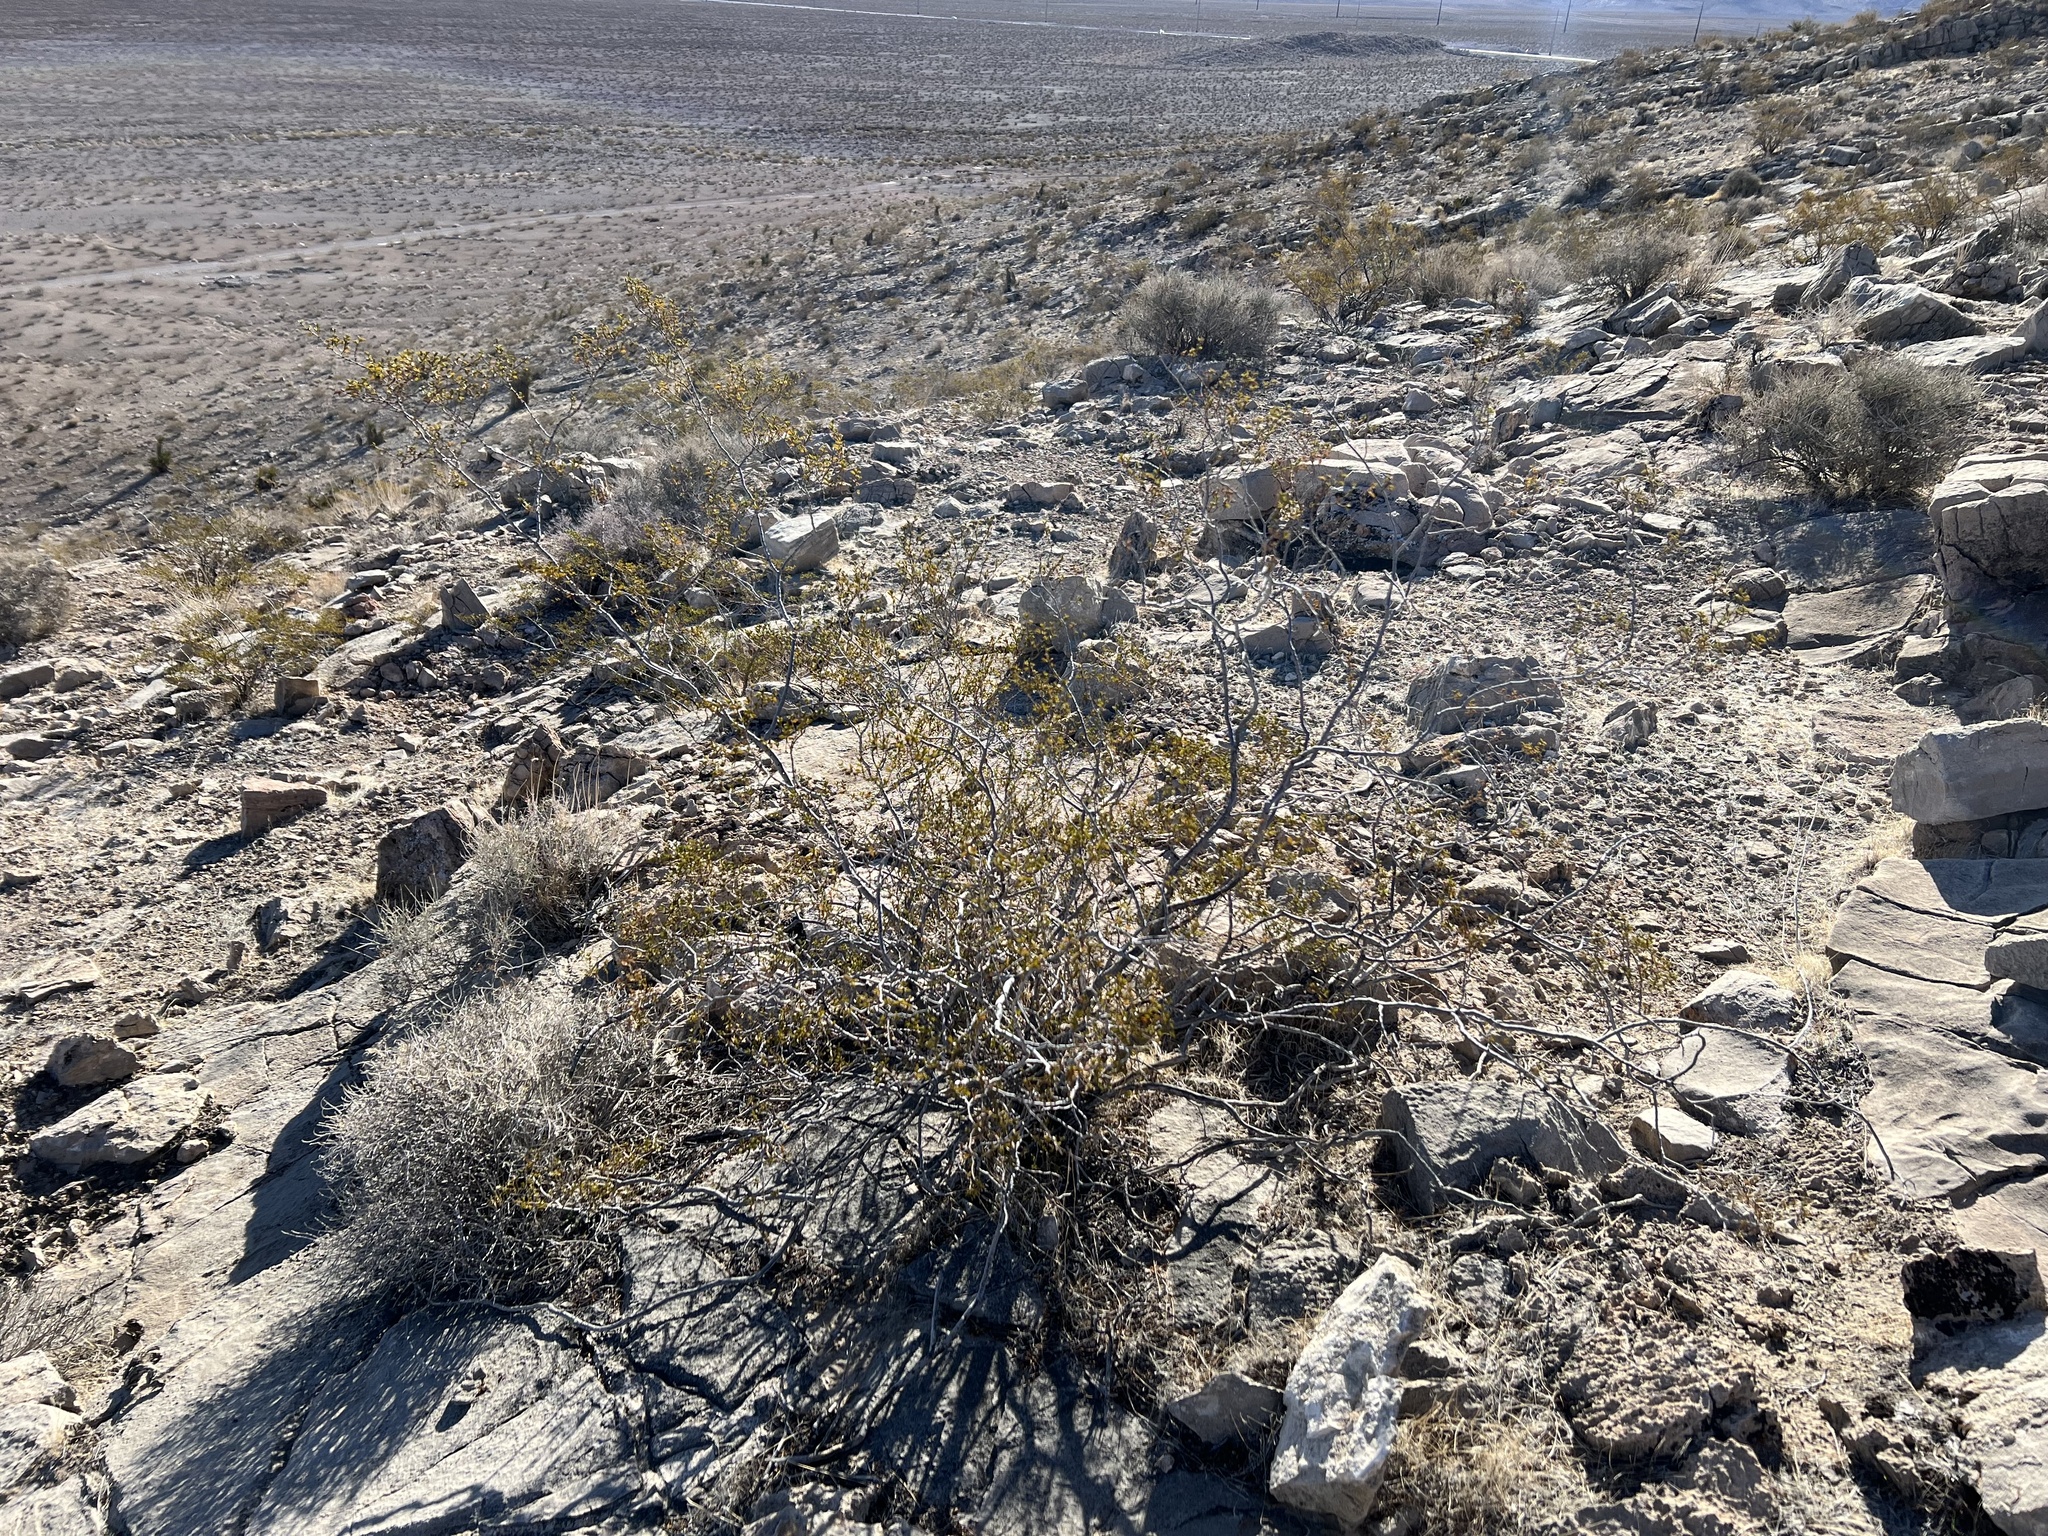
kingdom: Plantae
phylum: Tracheophyta
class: Magnoliopsida
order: Zygophyllales
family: Zygophyllaceae
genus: Larrea
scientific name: Larrea tridentata
